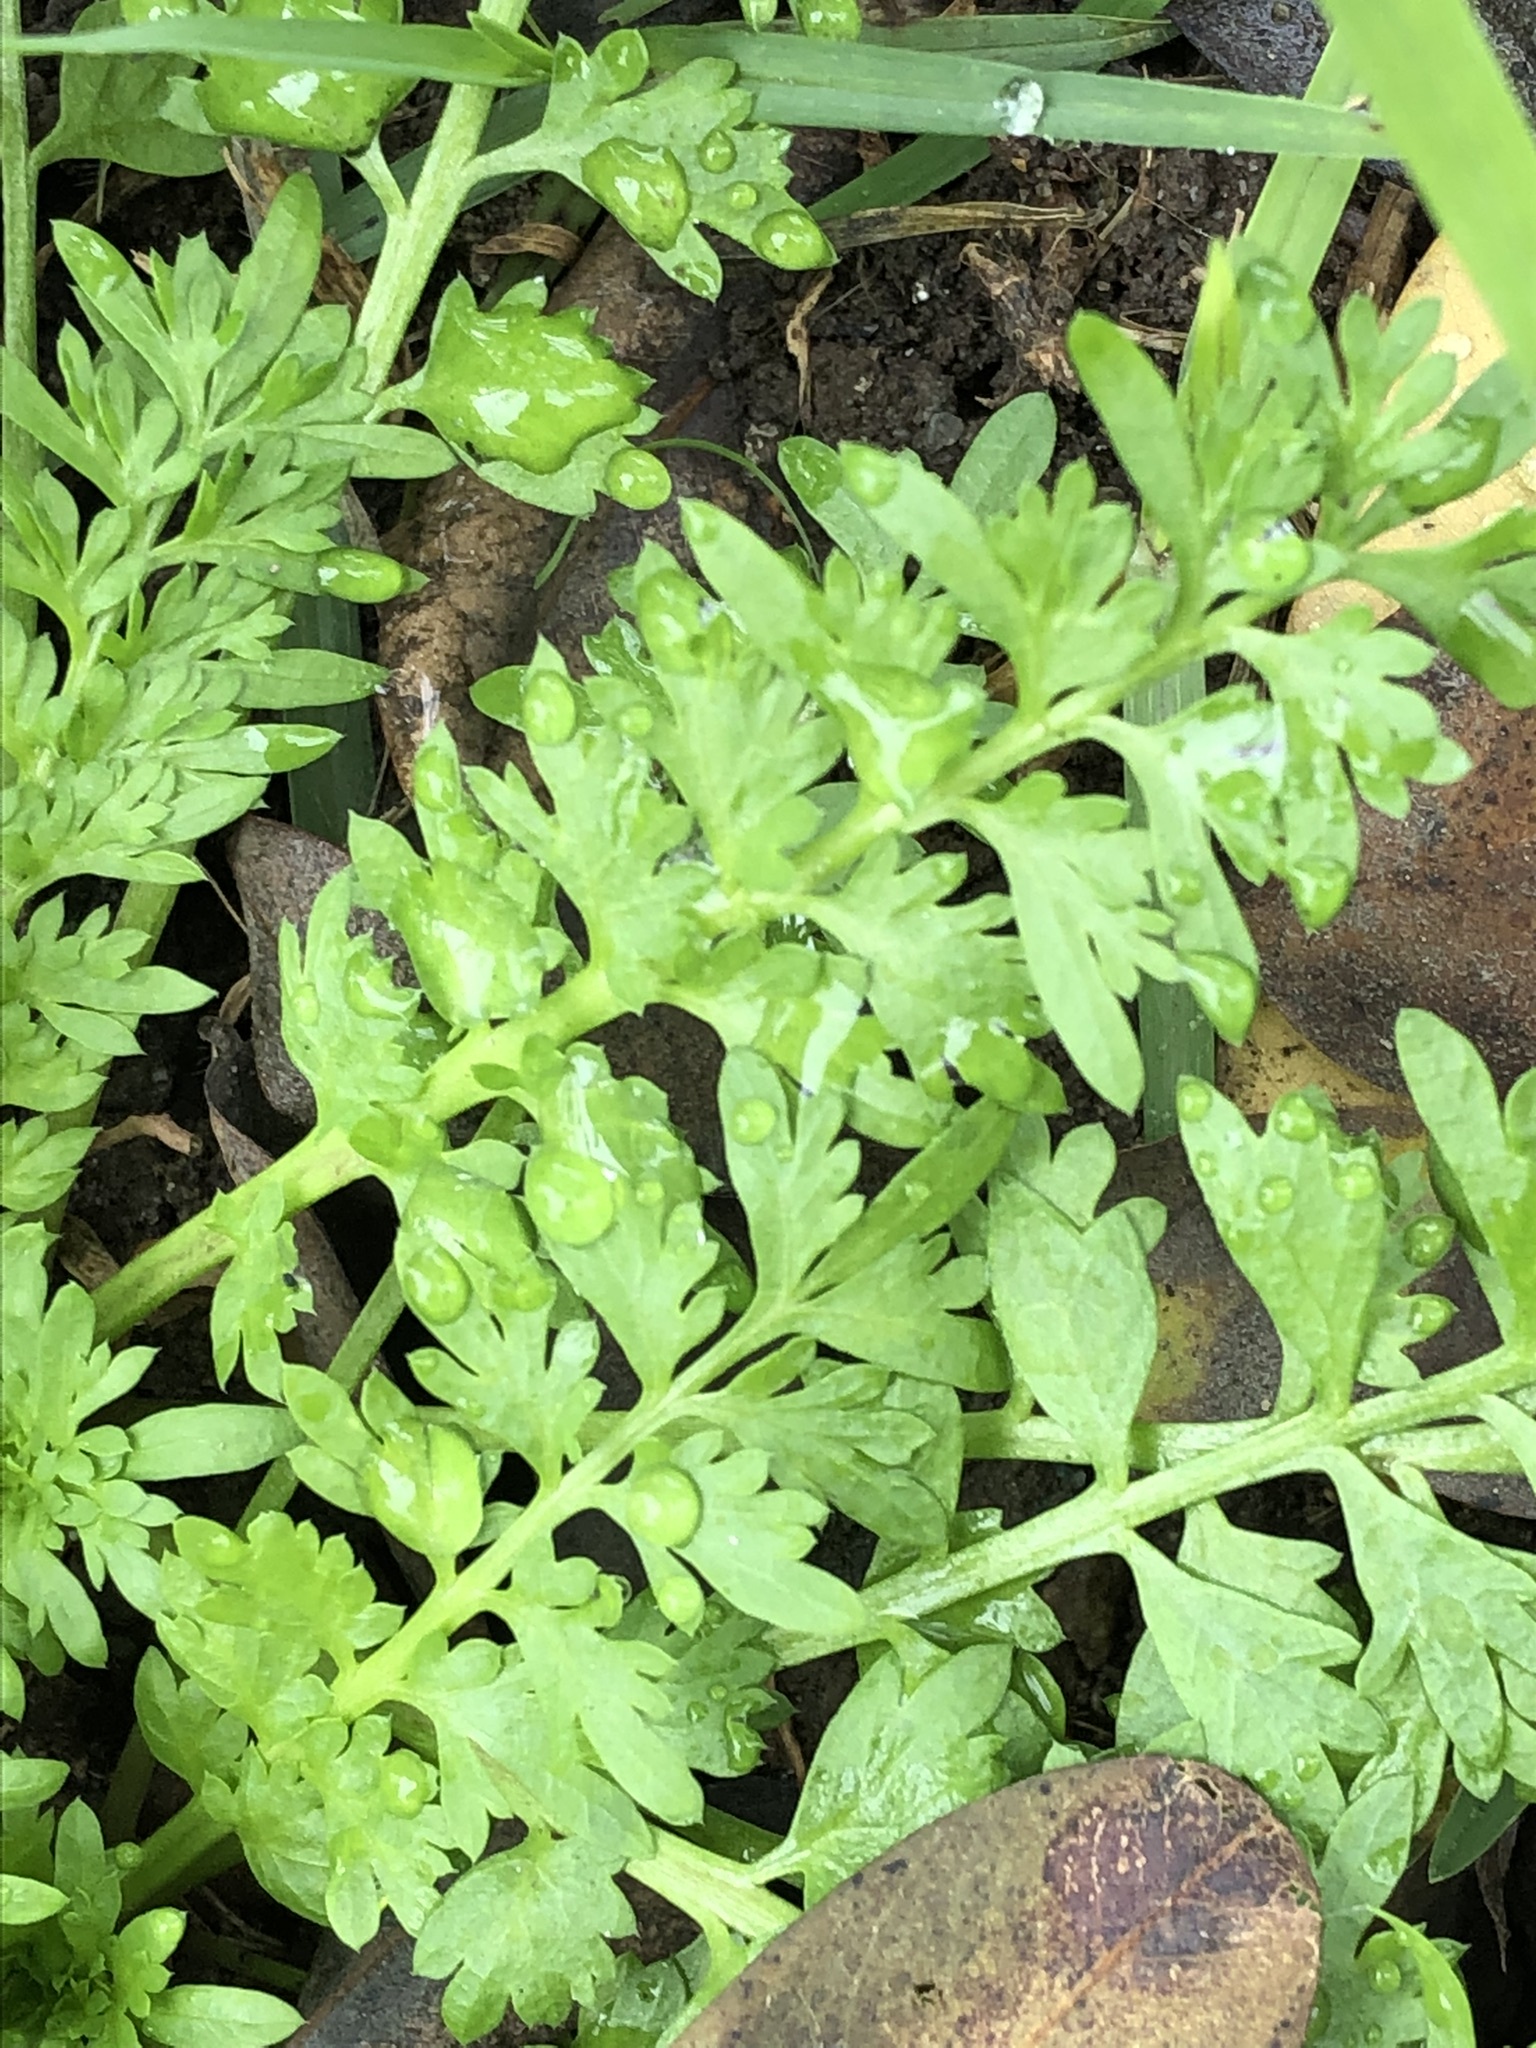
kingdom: Plantae
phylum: Tracheophyta
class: Magnoliopsida
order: Brassicales
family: Brassicaceae
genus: Lepidium
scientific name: Lepidium didymum
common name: Lesser swinecress
